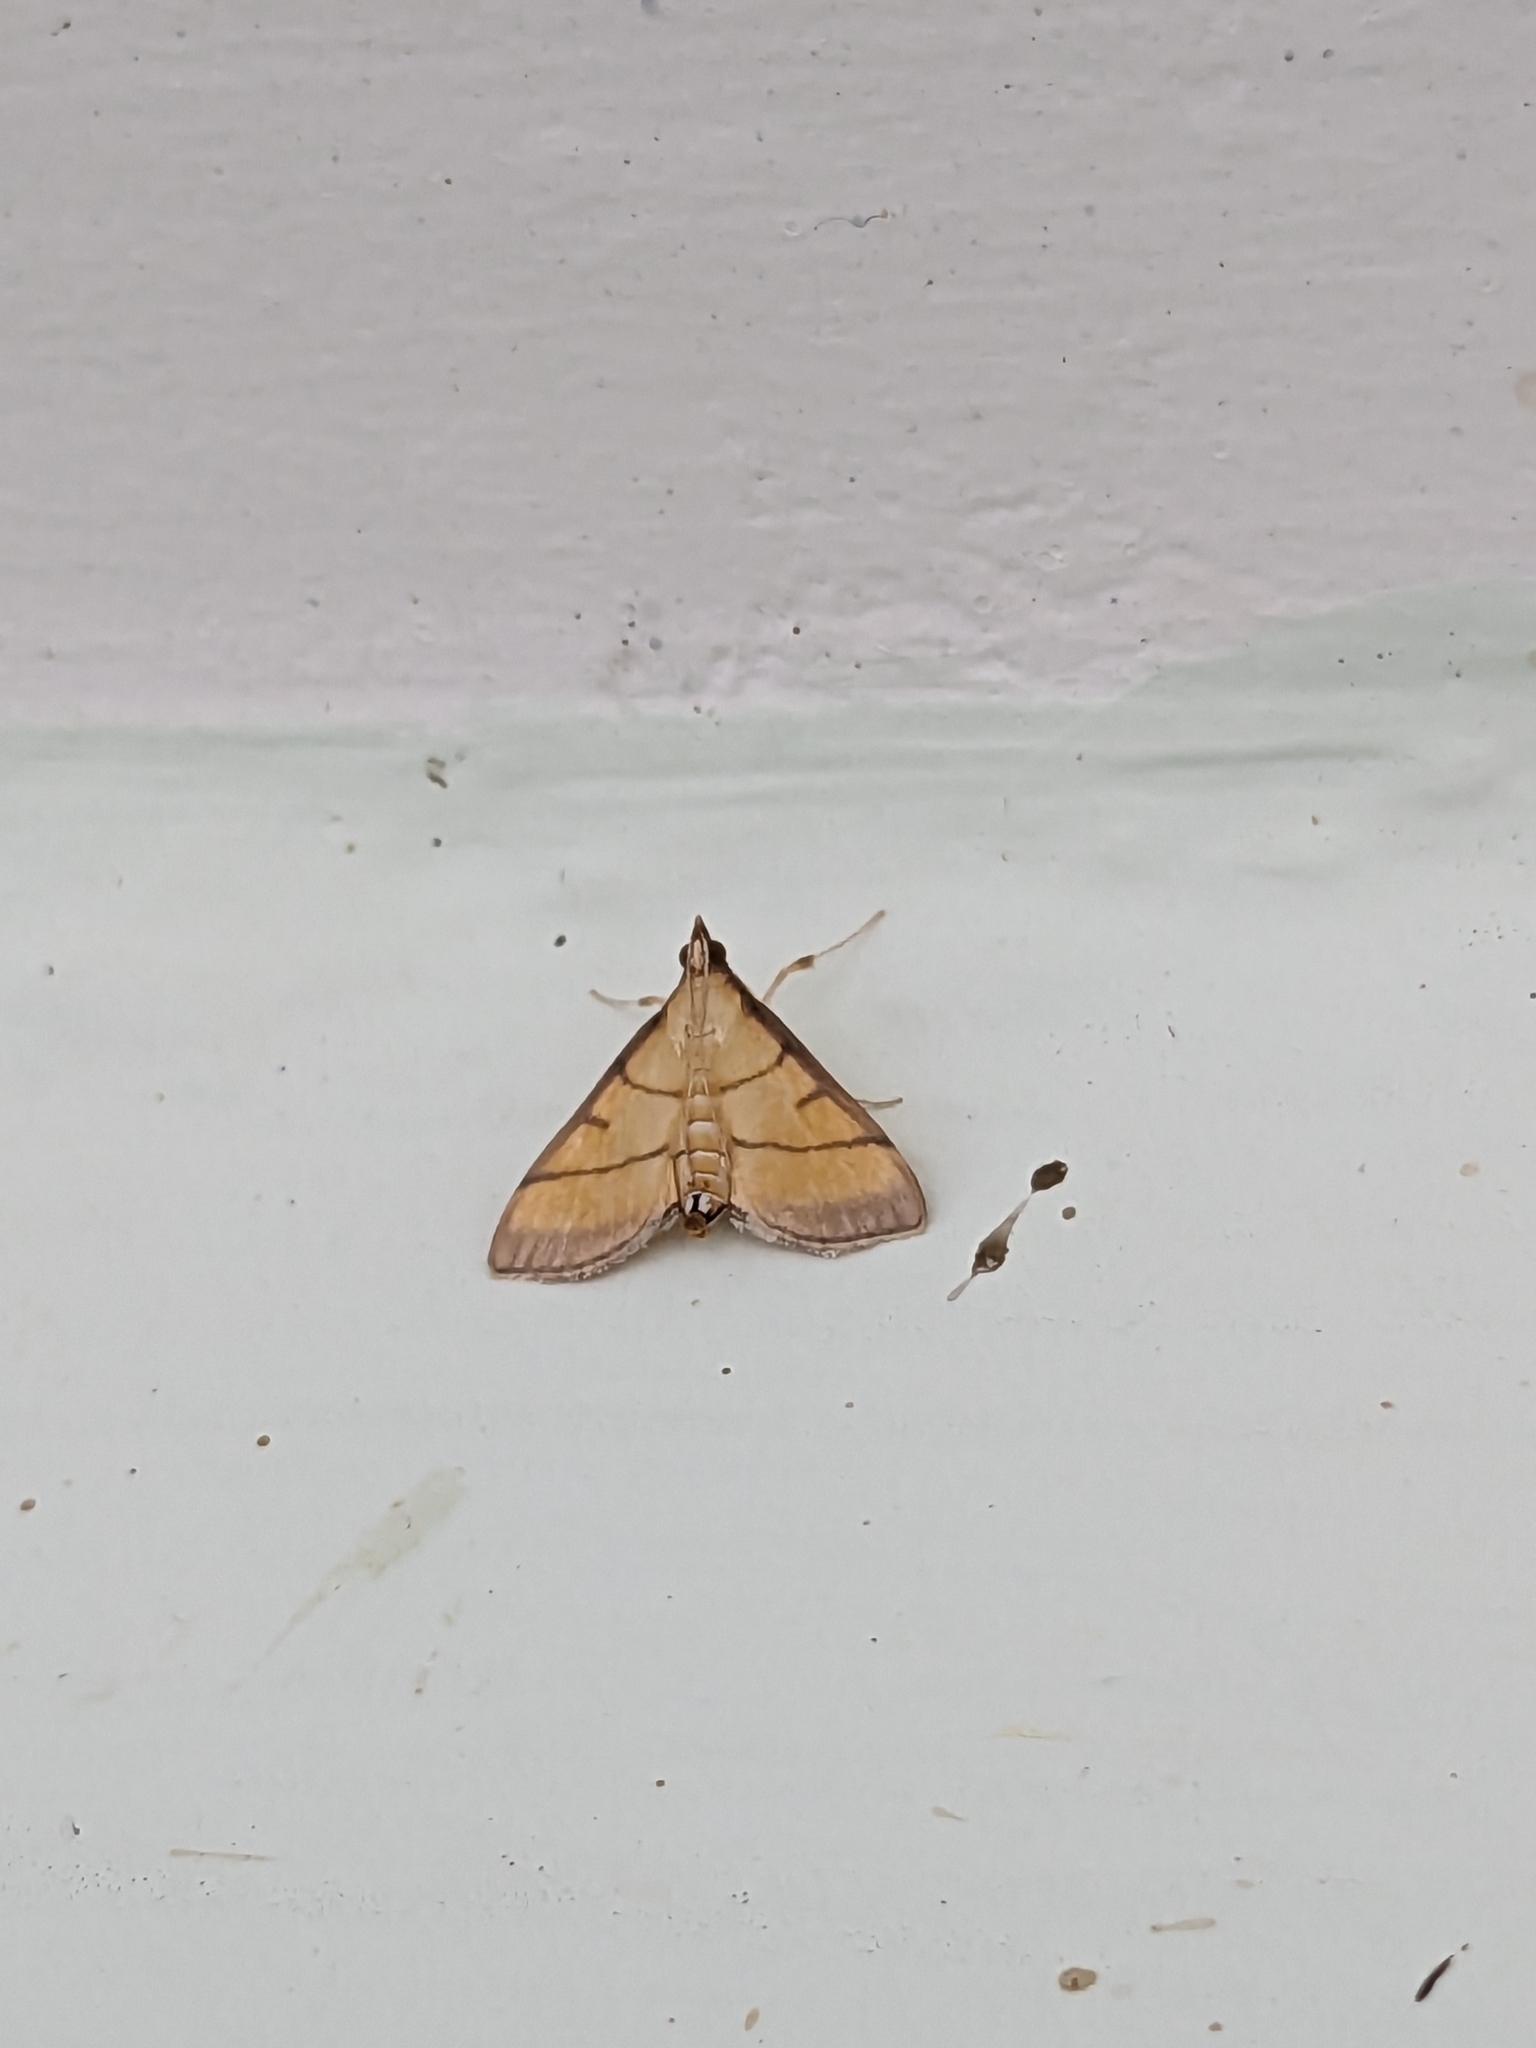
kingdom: Animalia
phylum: Arthropoda
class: Insecta
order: Lepidoptera
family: Crambidae
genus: Cnaphalocrocis
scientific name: Cnaphalocrocis medinalis
